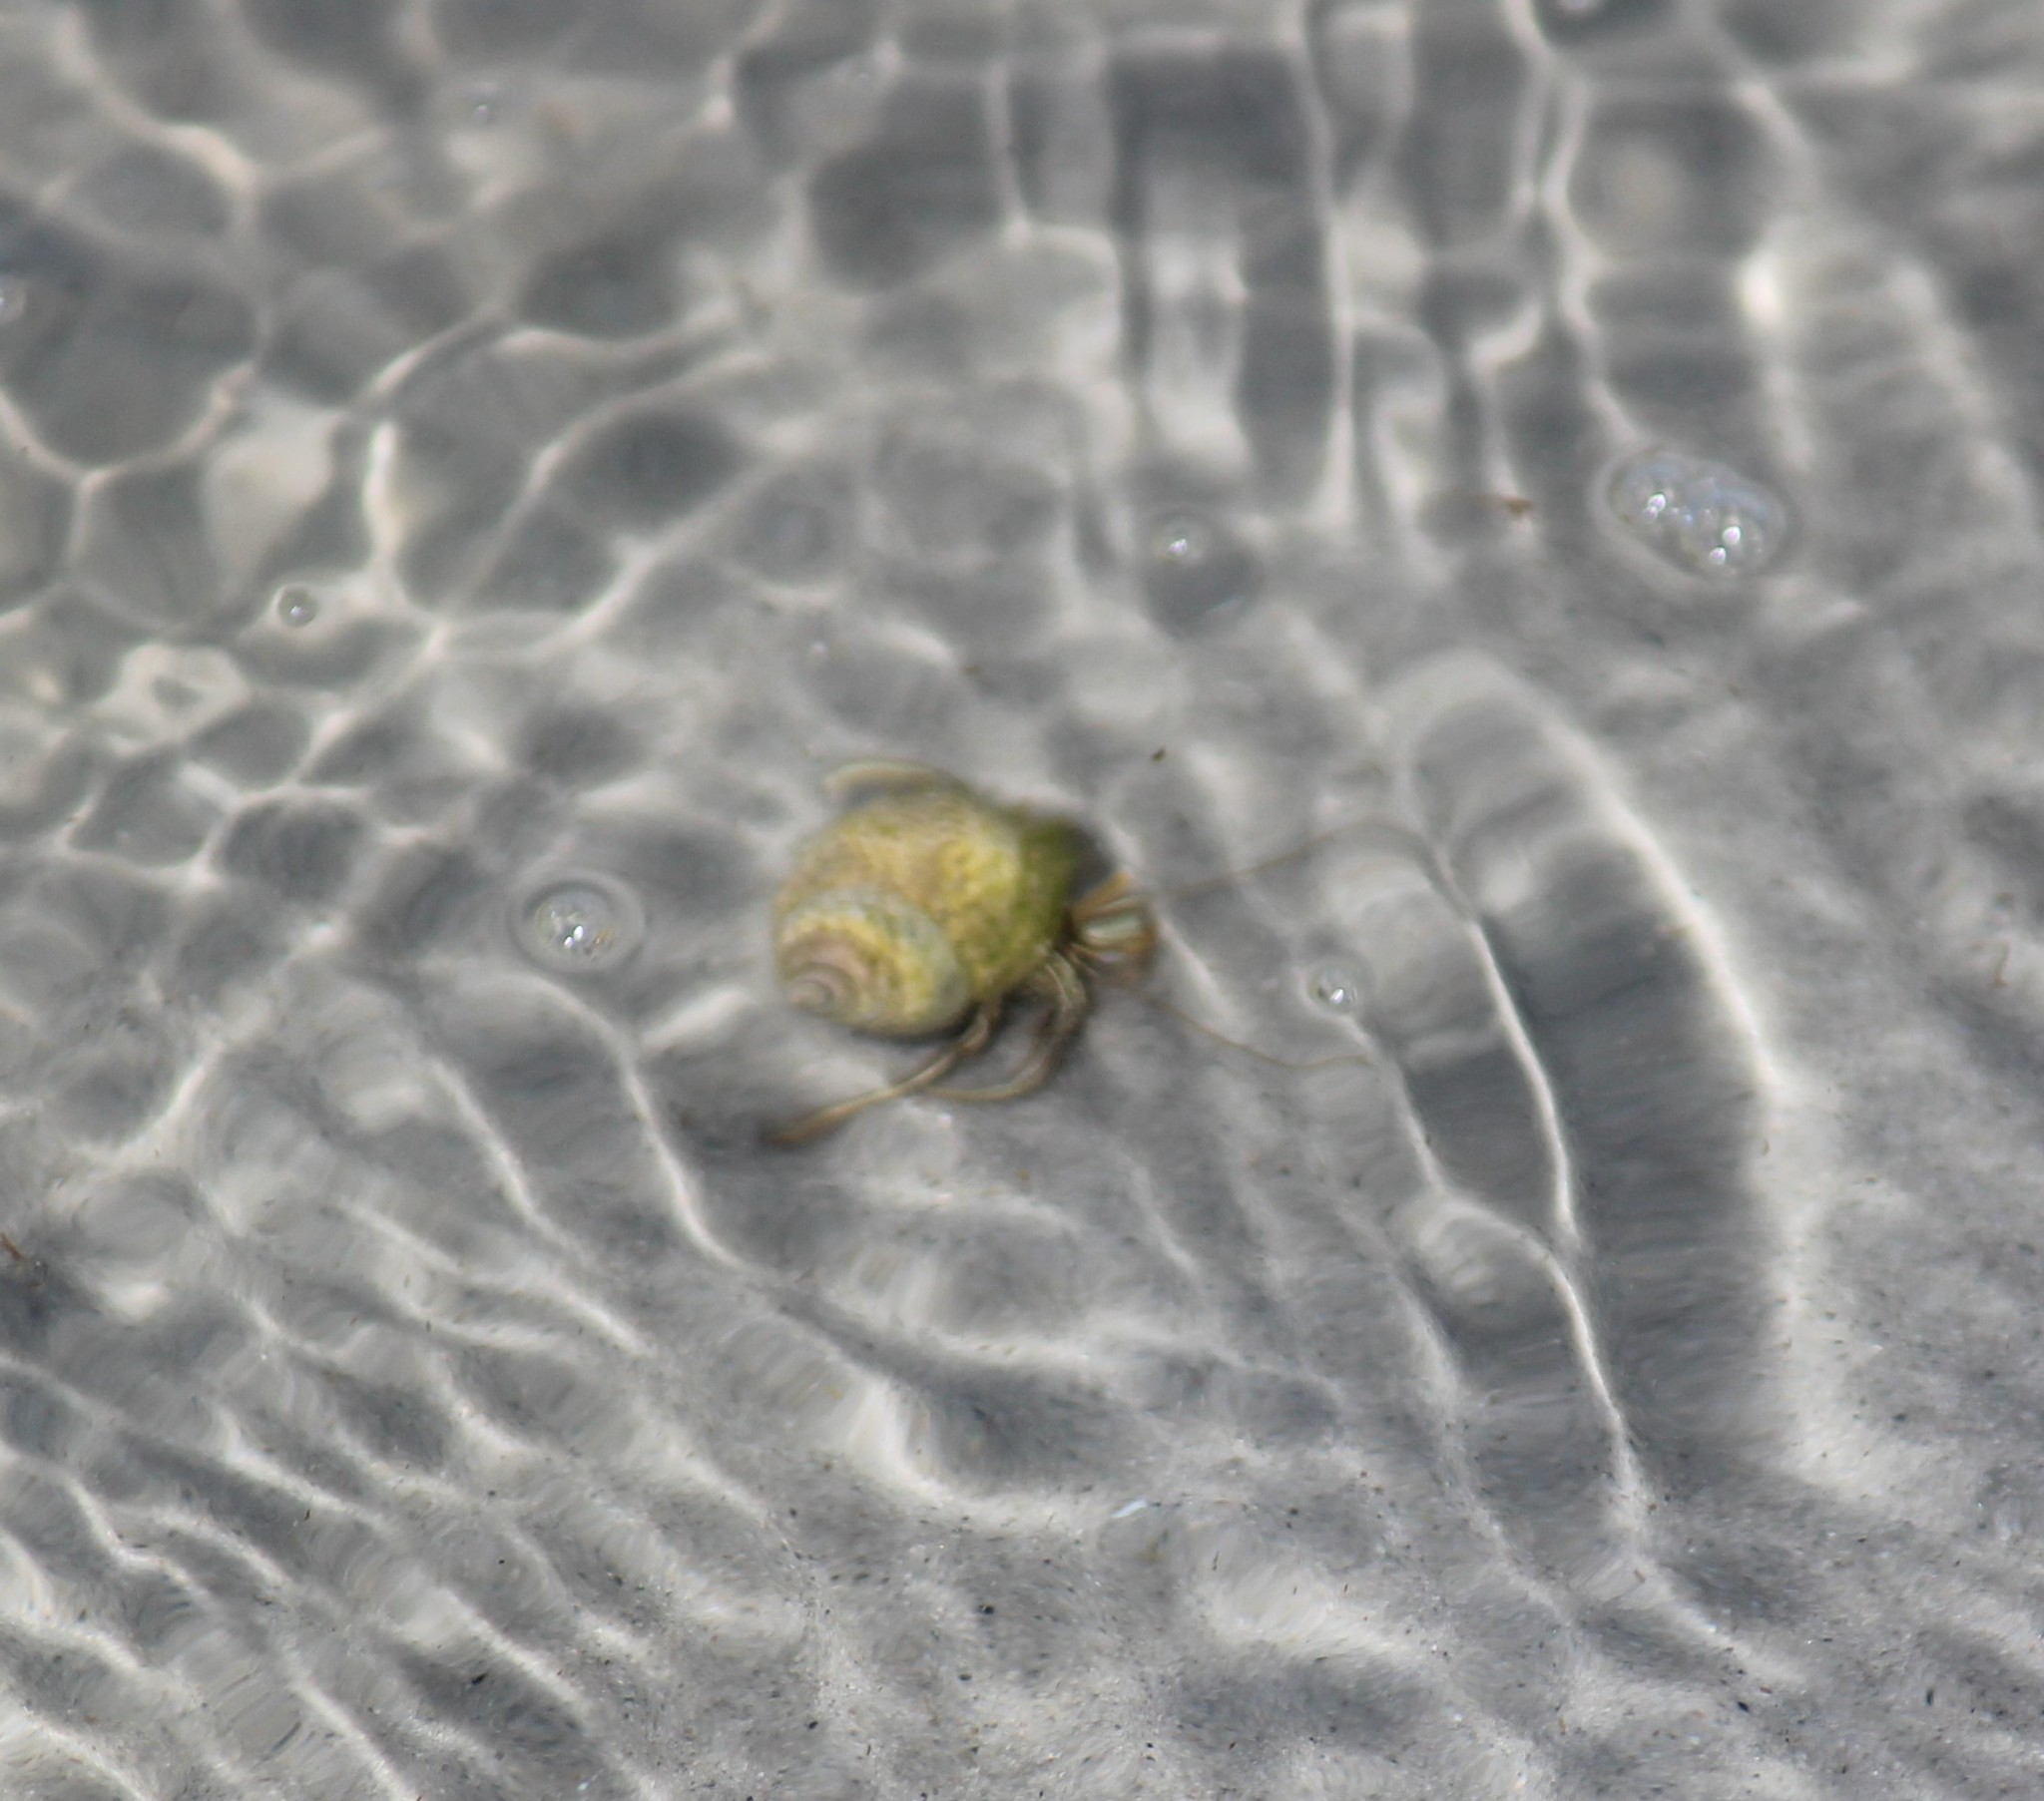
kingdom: Animalia
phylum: Arthropoda
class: Malacostraca
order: Decapoda
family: Diogenidae
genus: Clibanarius
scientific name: Clibanarius vittatus
